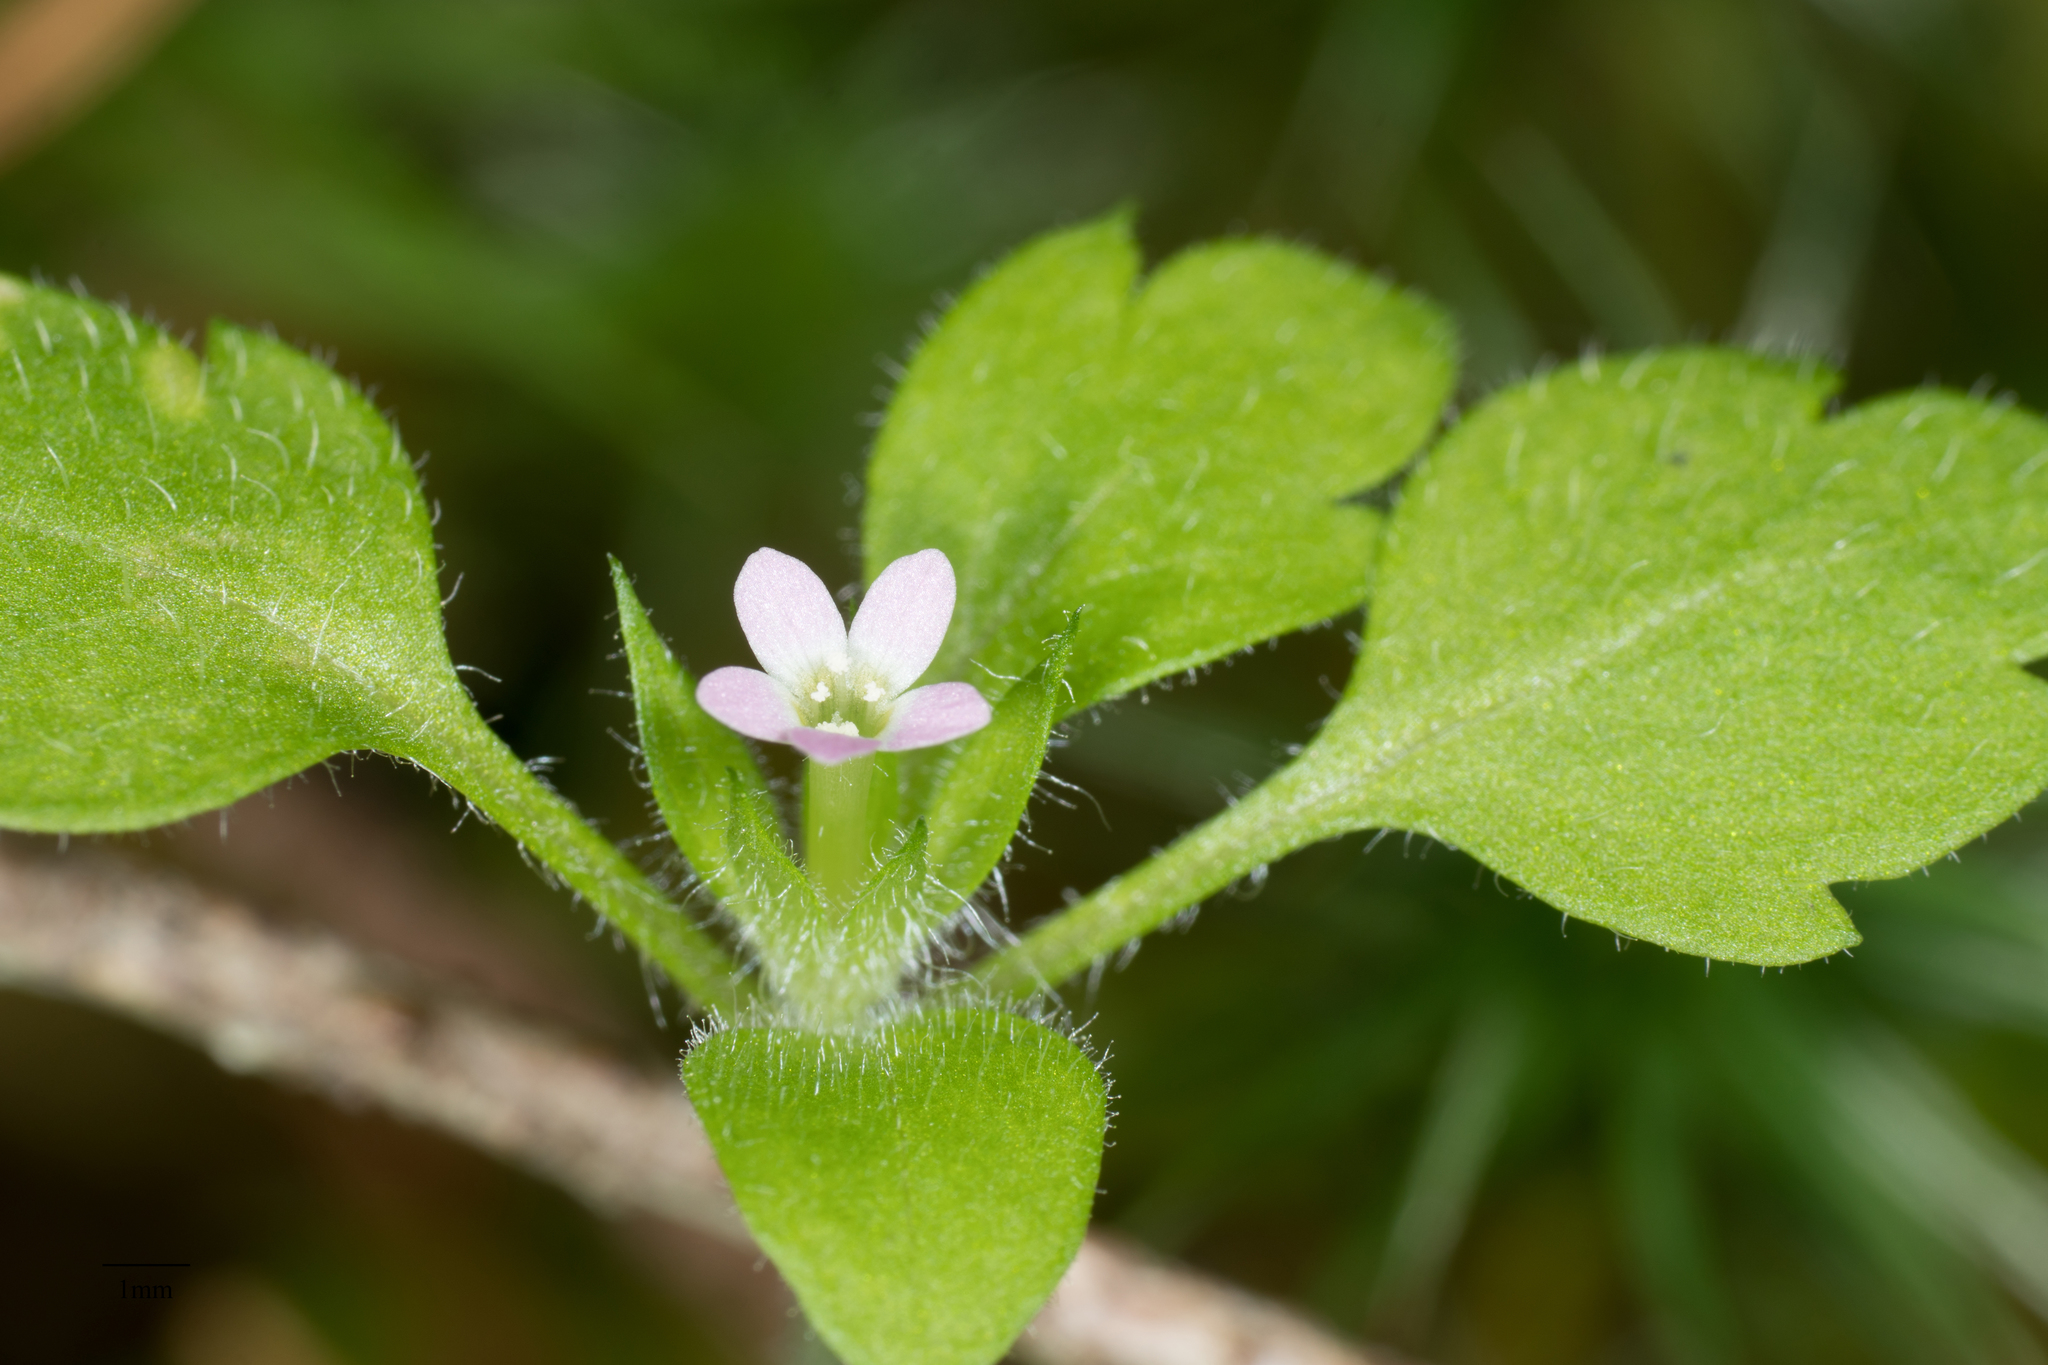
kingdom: Plantae
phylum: Tracheophyta
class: Magnoliopsida
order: Ericales
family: Polemoniaceae
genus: Collomia
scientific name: Collomia heterophylla
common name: Variable-leaved collomia
